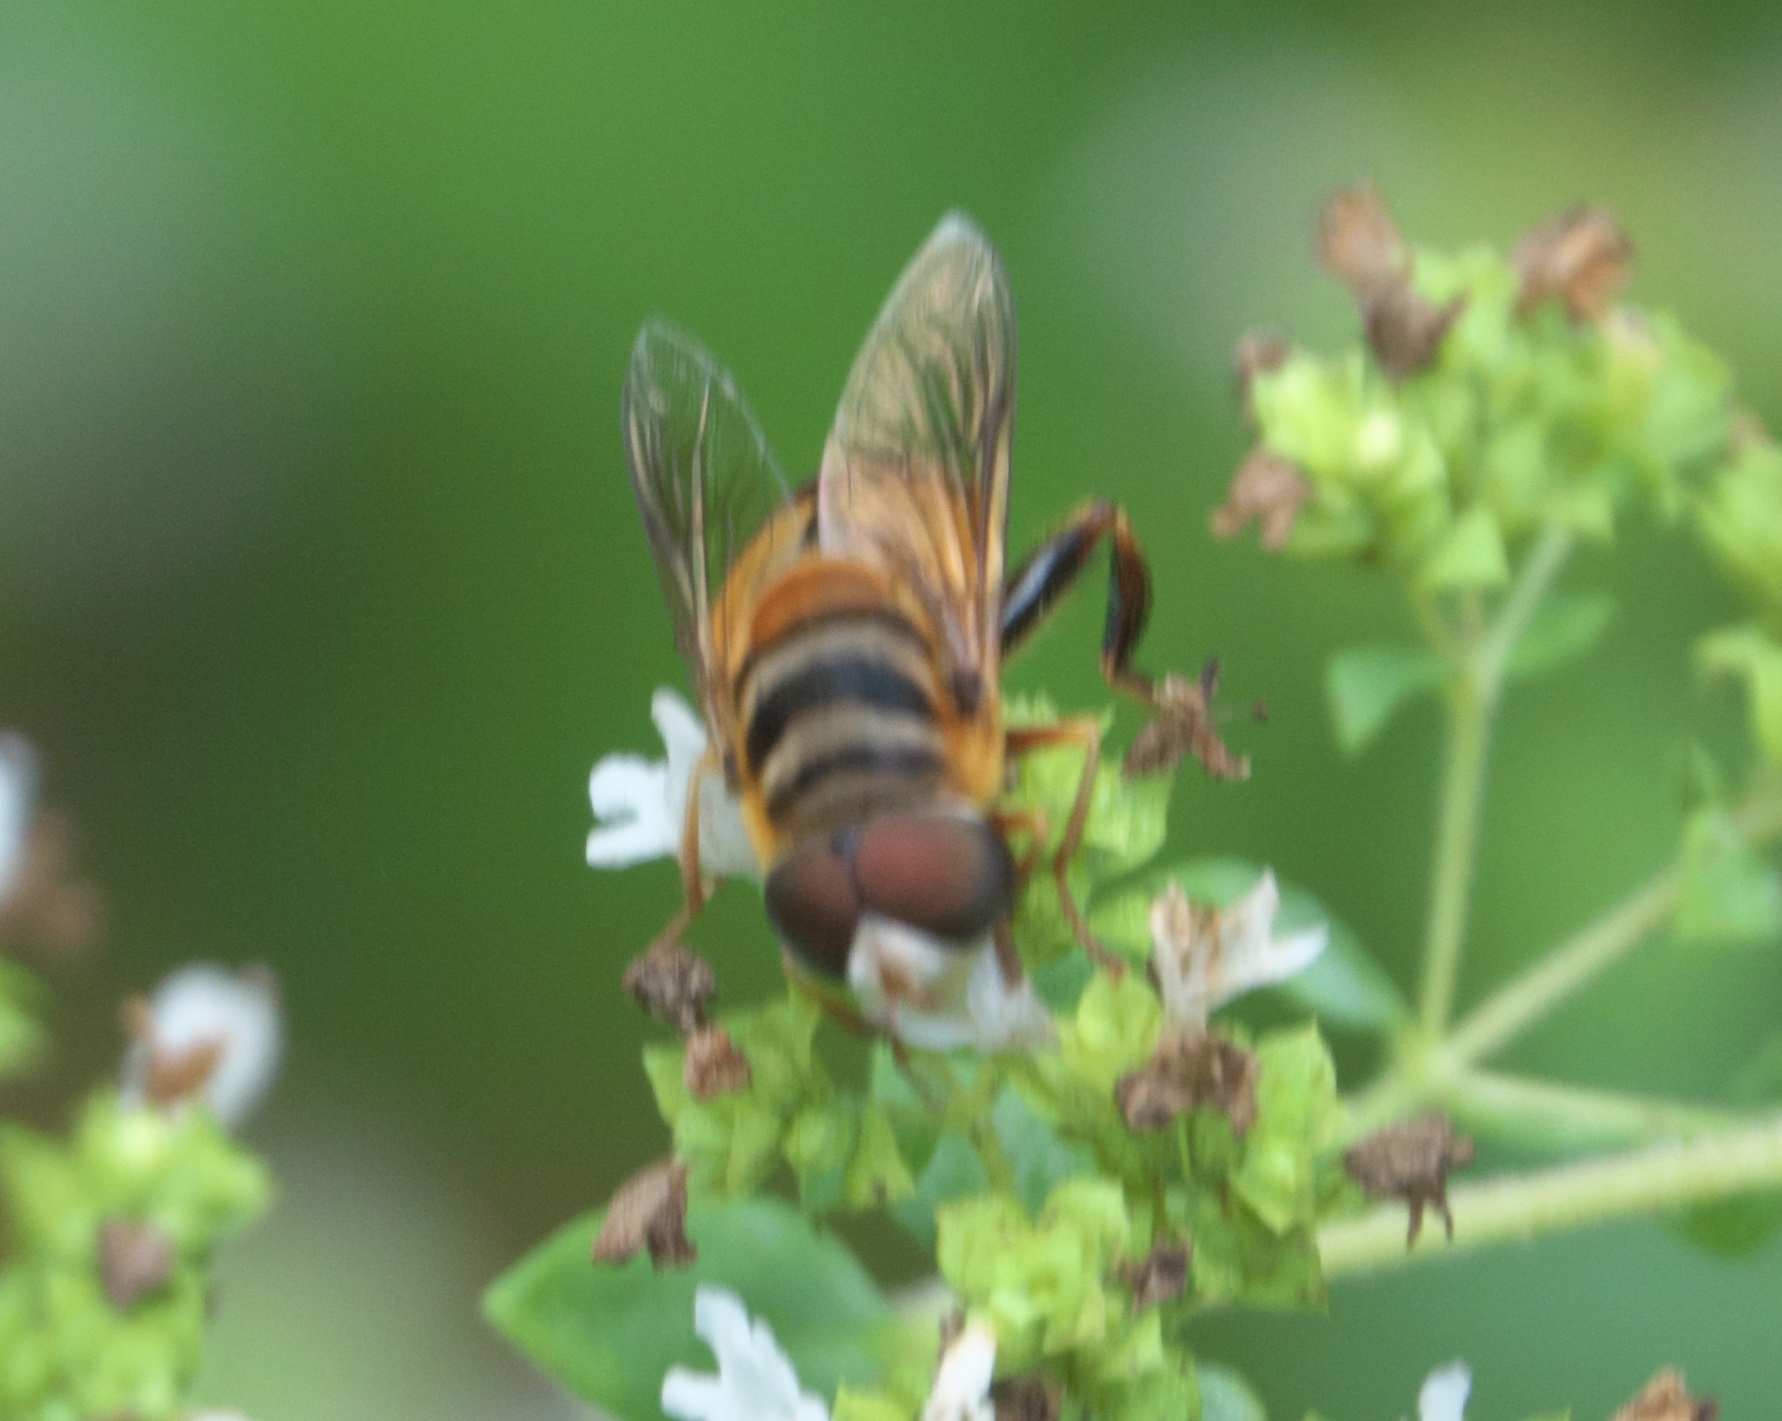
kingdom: Animalia
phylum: Arthropoda
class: Insecta
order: Diptera
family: Syrphidae
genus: Palpada
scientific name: Palpada vinetorum
